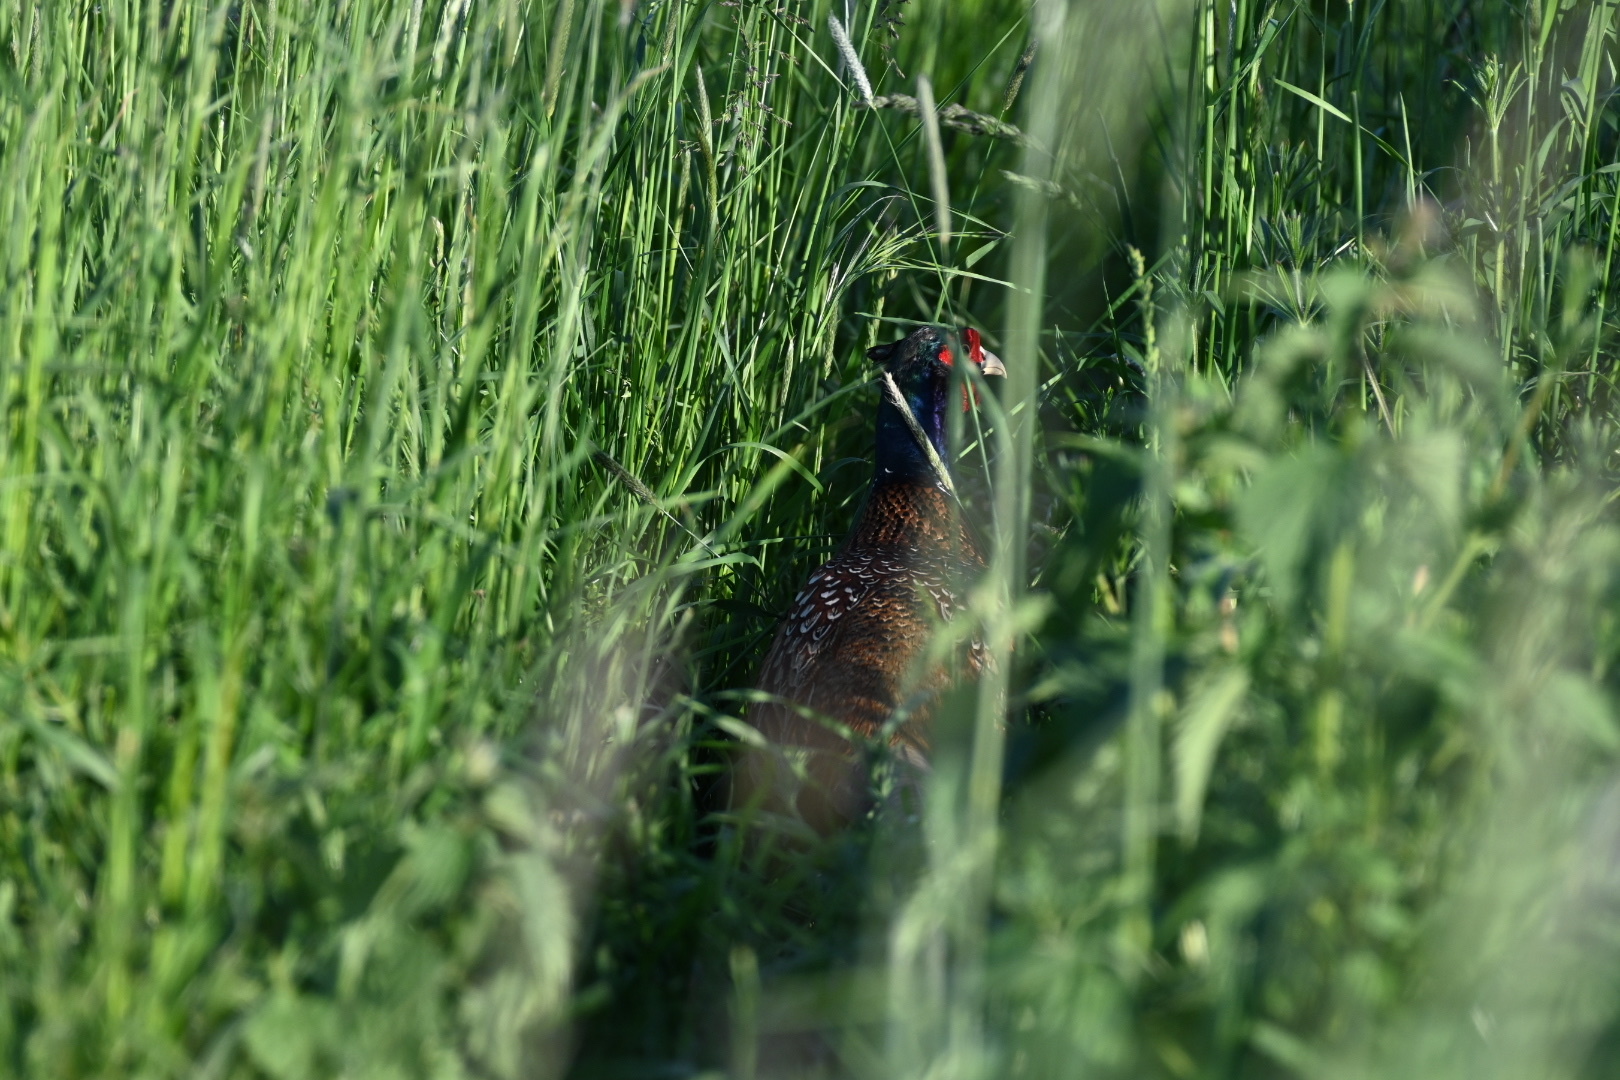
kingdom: Animalia
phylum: Chordata
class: Aves
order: Galliformes
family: Phasianidae
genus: Phasianus
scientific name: Phasianus colchicus
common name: Common pheasant
